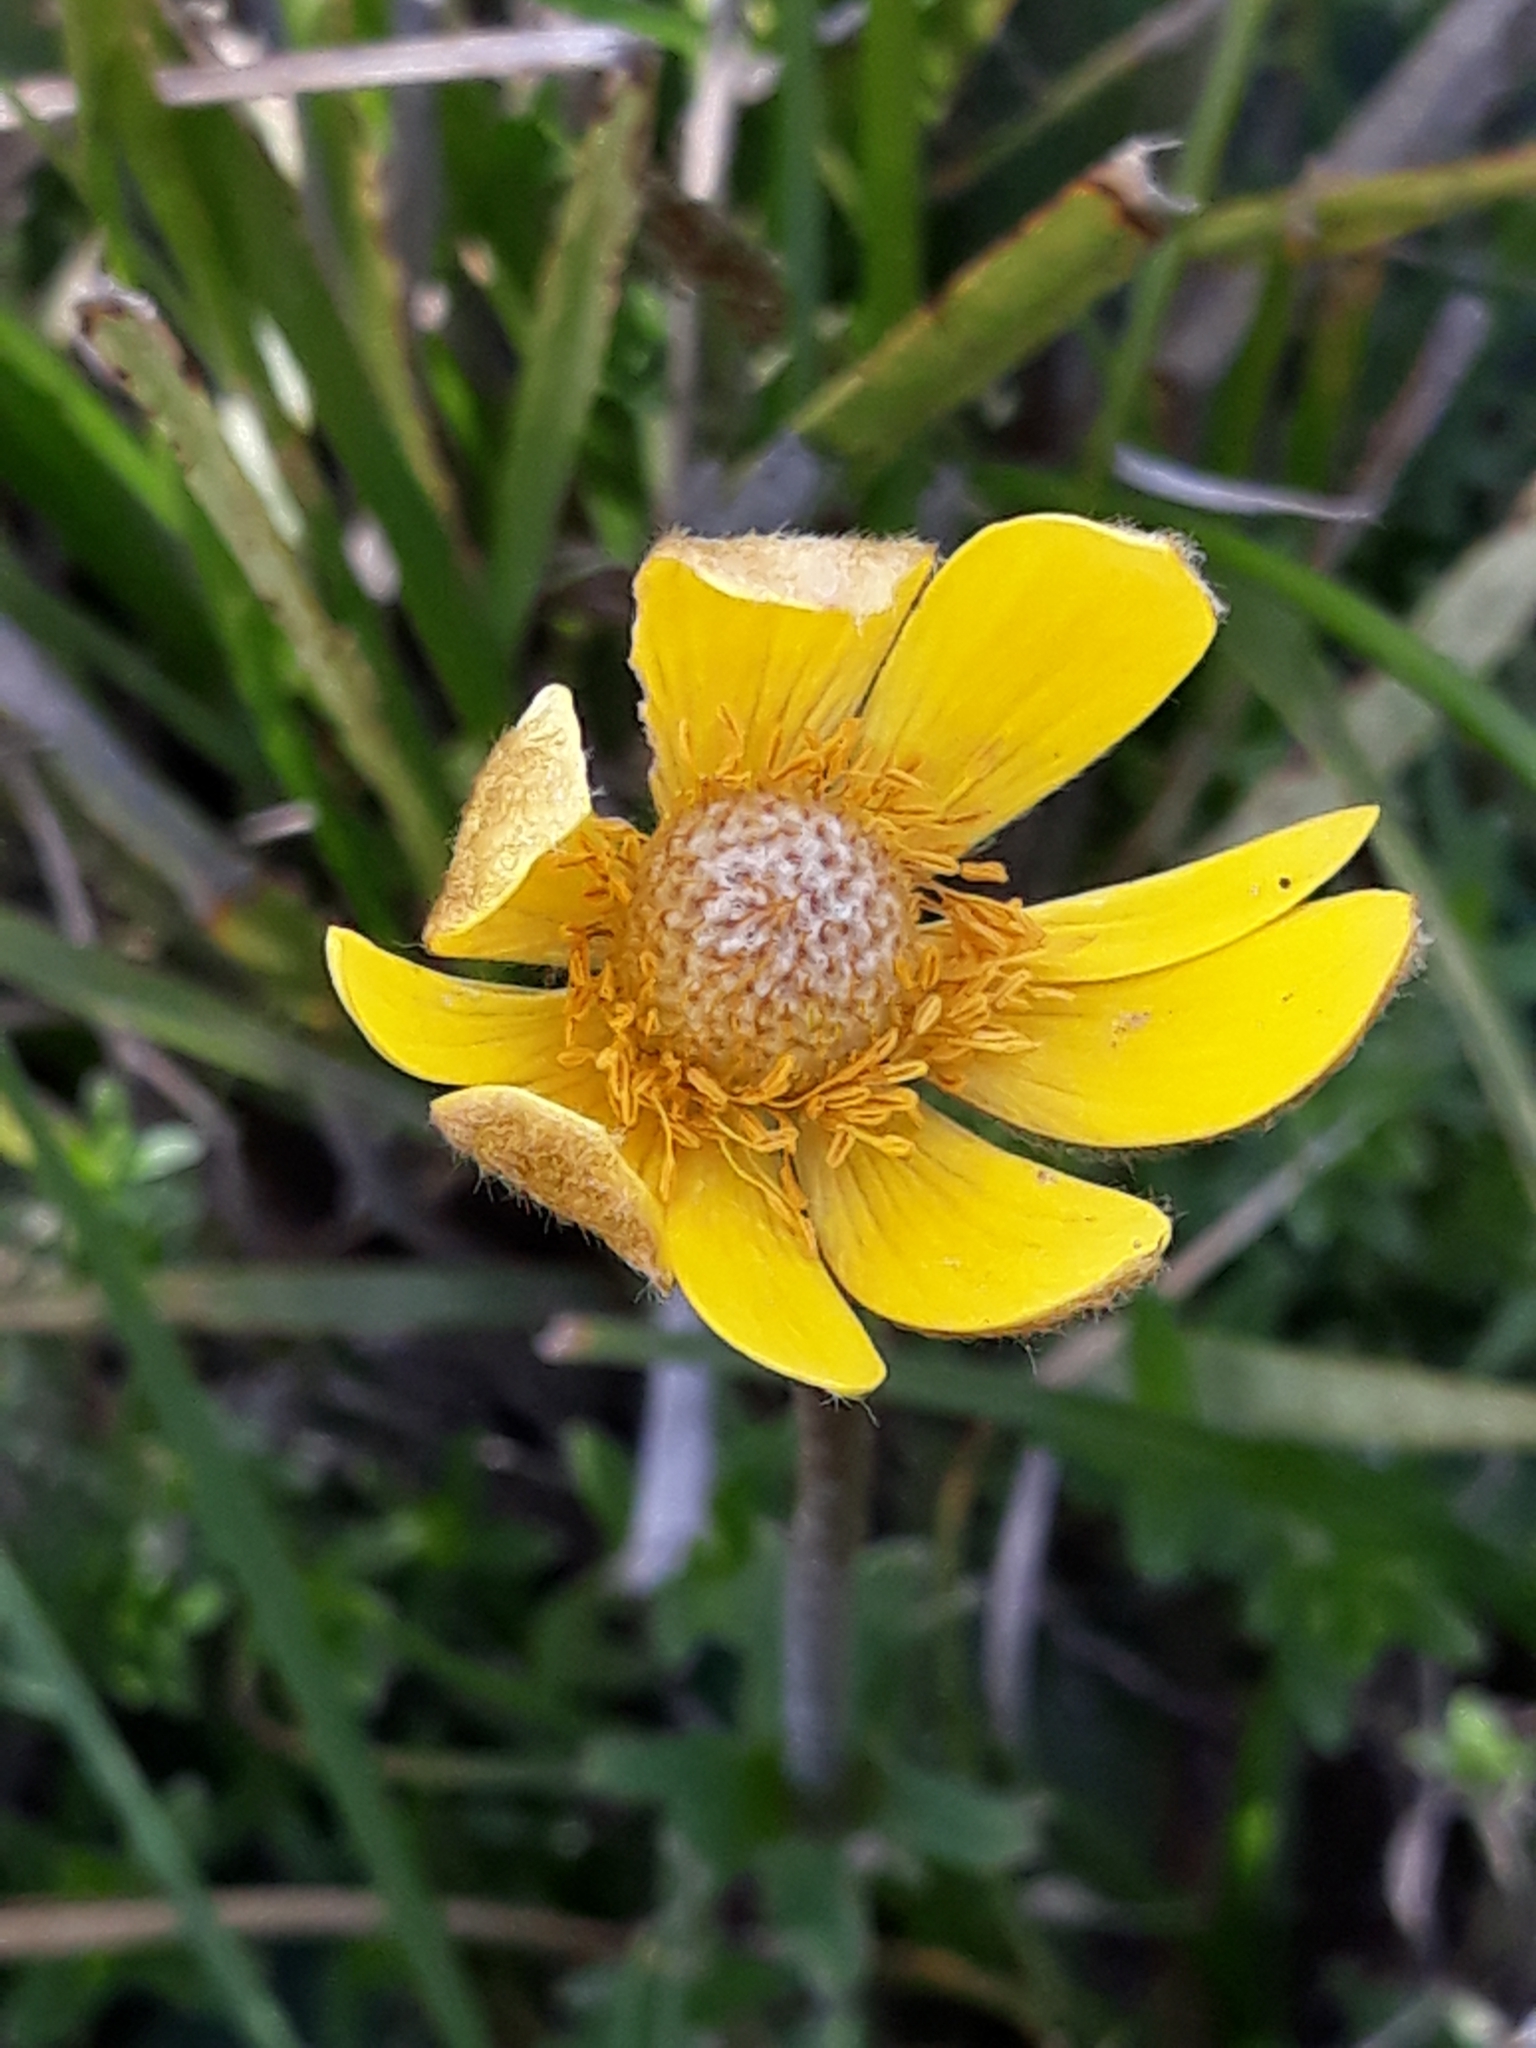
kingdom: Plantae
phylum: Tracheophyta
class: Magnoliopsida
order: Ranunculales
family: Ranunculaceae
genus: Anemone
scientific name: Anemone palmata
